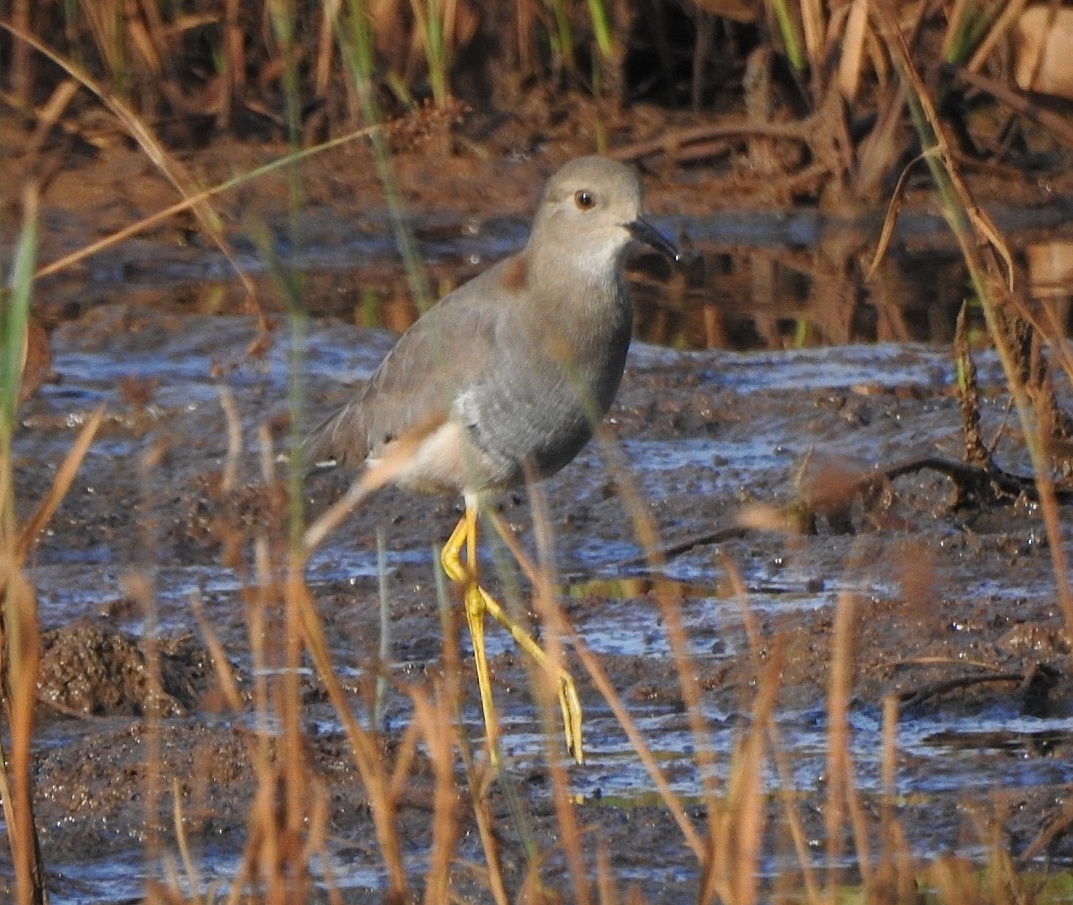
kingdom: Animalia
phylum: Chordata
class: Aves
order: Charadriiformes
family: Charadriidae
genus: Vanellus
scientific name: Vanellus leucurus
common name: White-tailed lapwing
